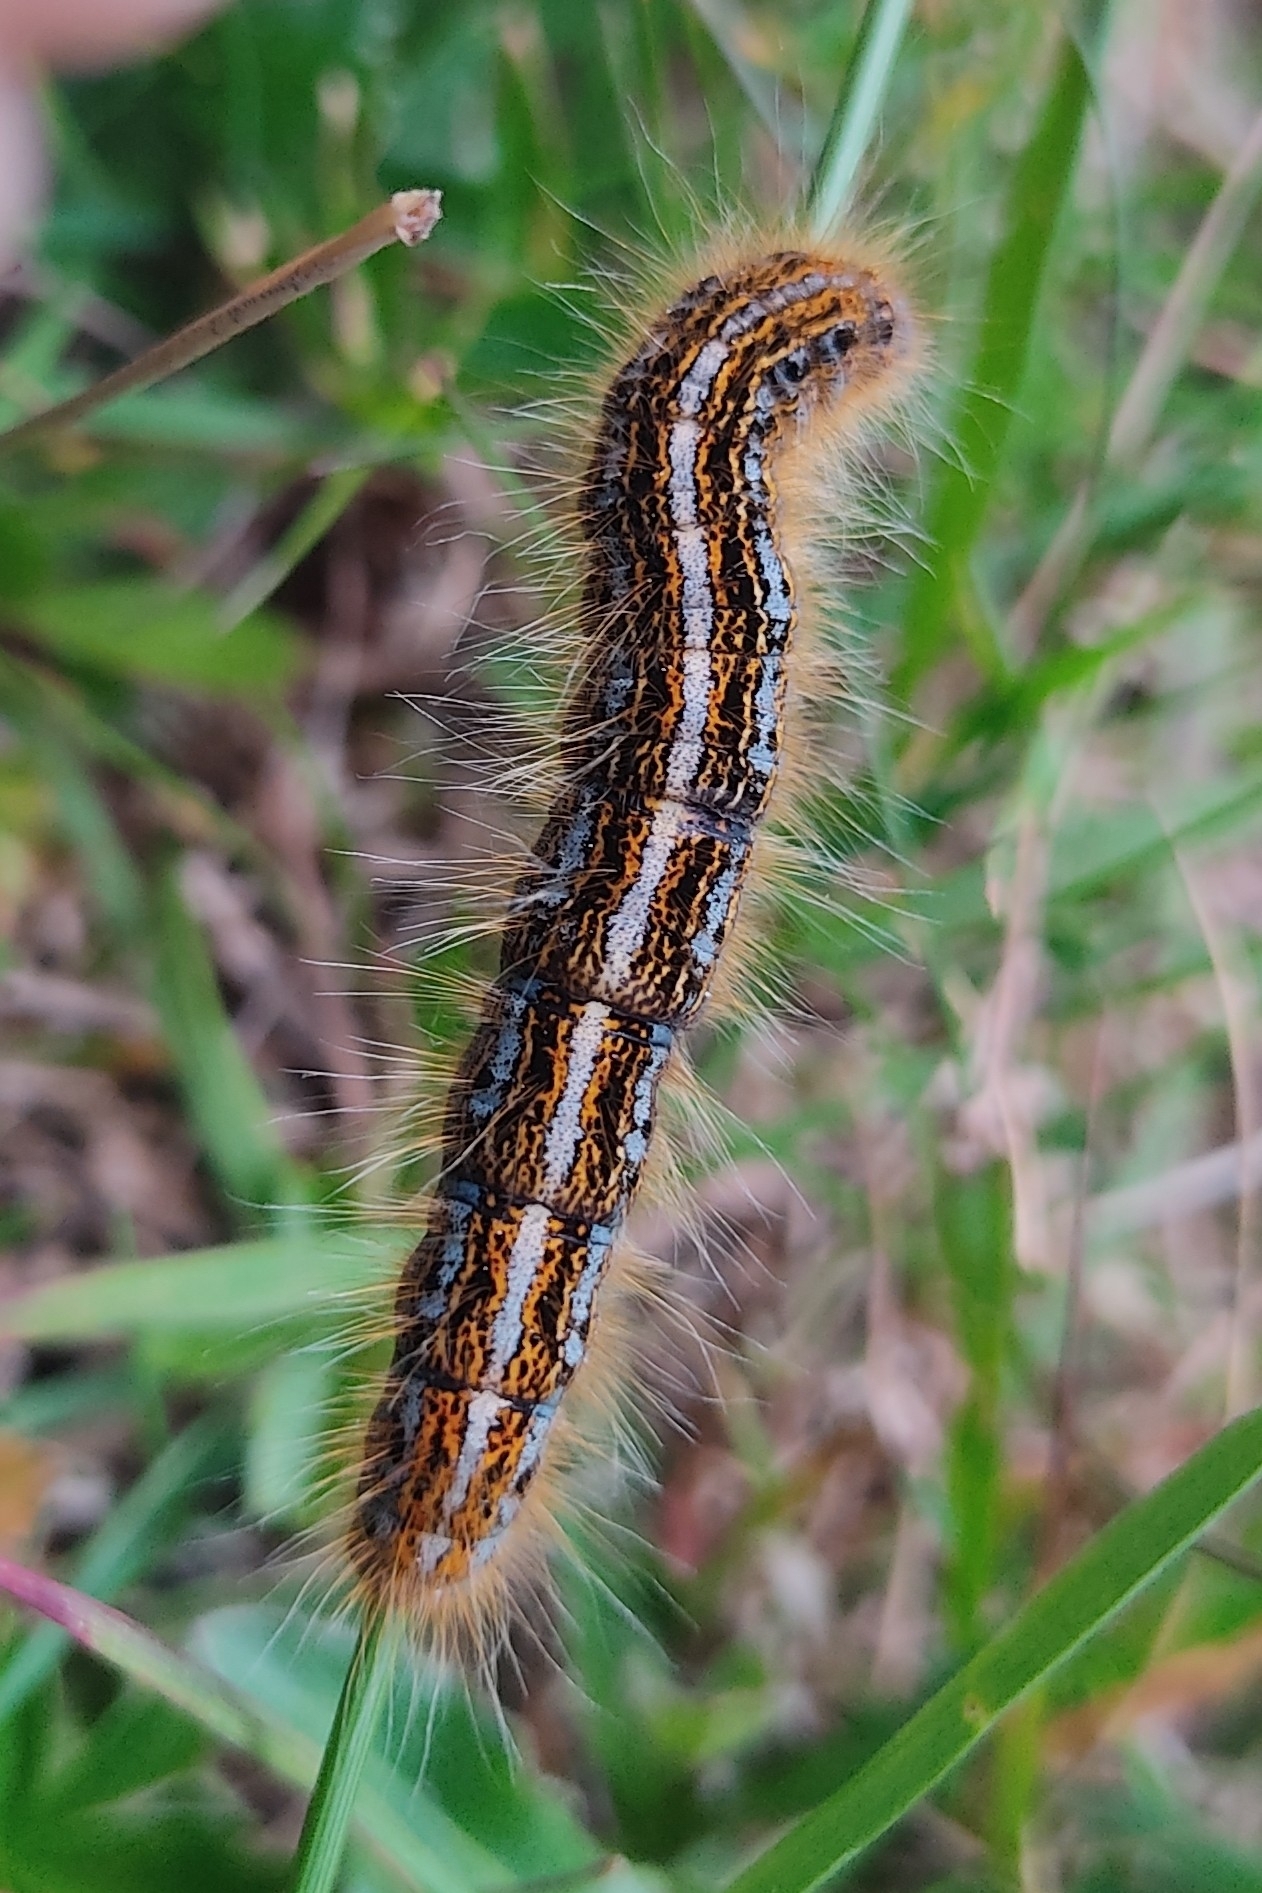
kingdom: Animalia
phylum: Arthropoda
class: Insecta
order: Lepidoptera
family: Lasiocampidae
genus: Malacosoma
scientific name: Malacosoma alpicola
